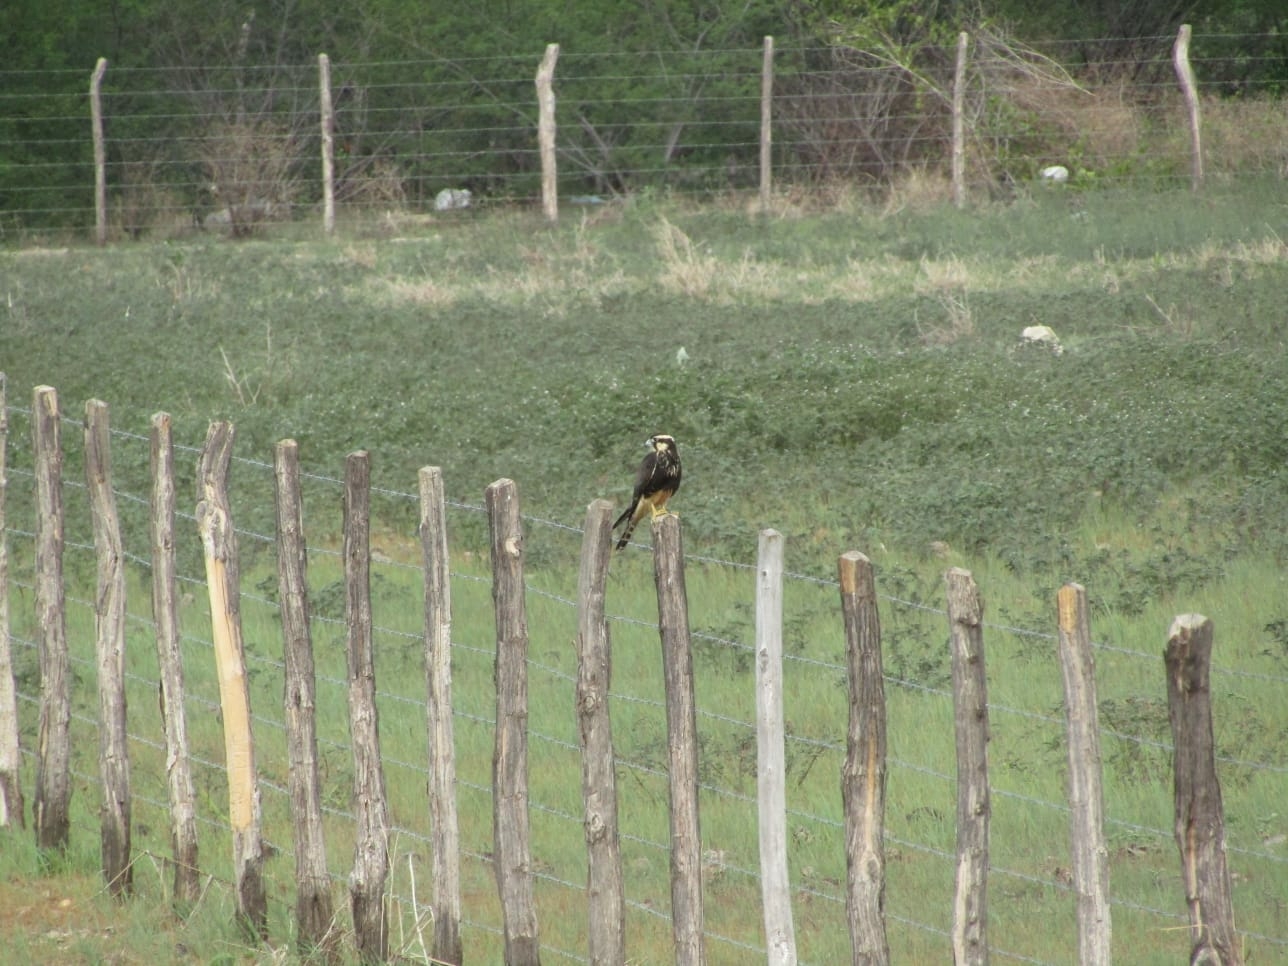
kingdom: Animalia
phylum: Chordata
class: Aves
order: Falconiformes
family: Falconidae
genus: Falco
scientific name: Falco femoralis
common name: Aplomado falcon
